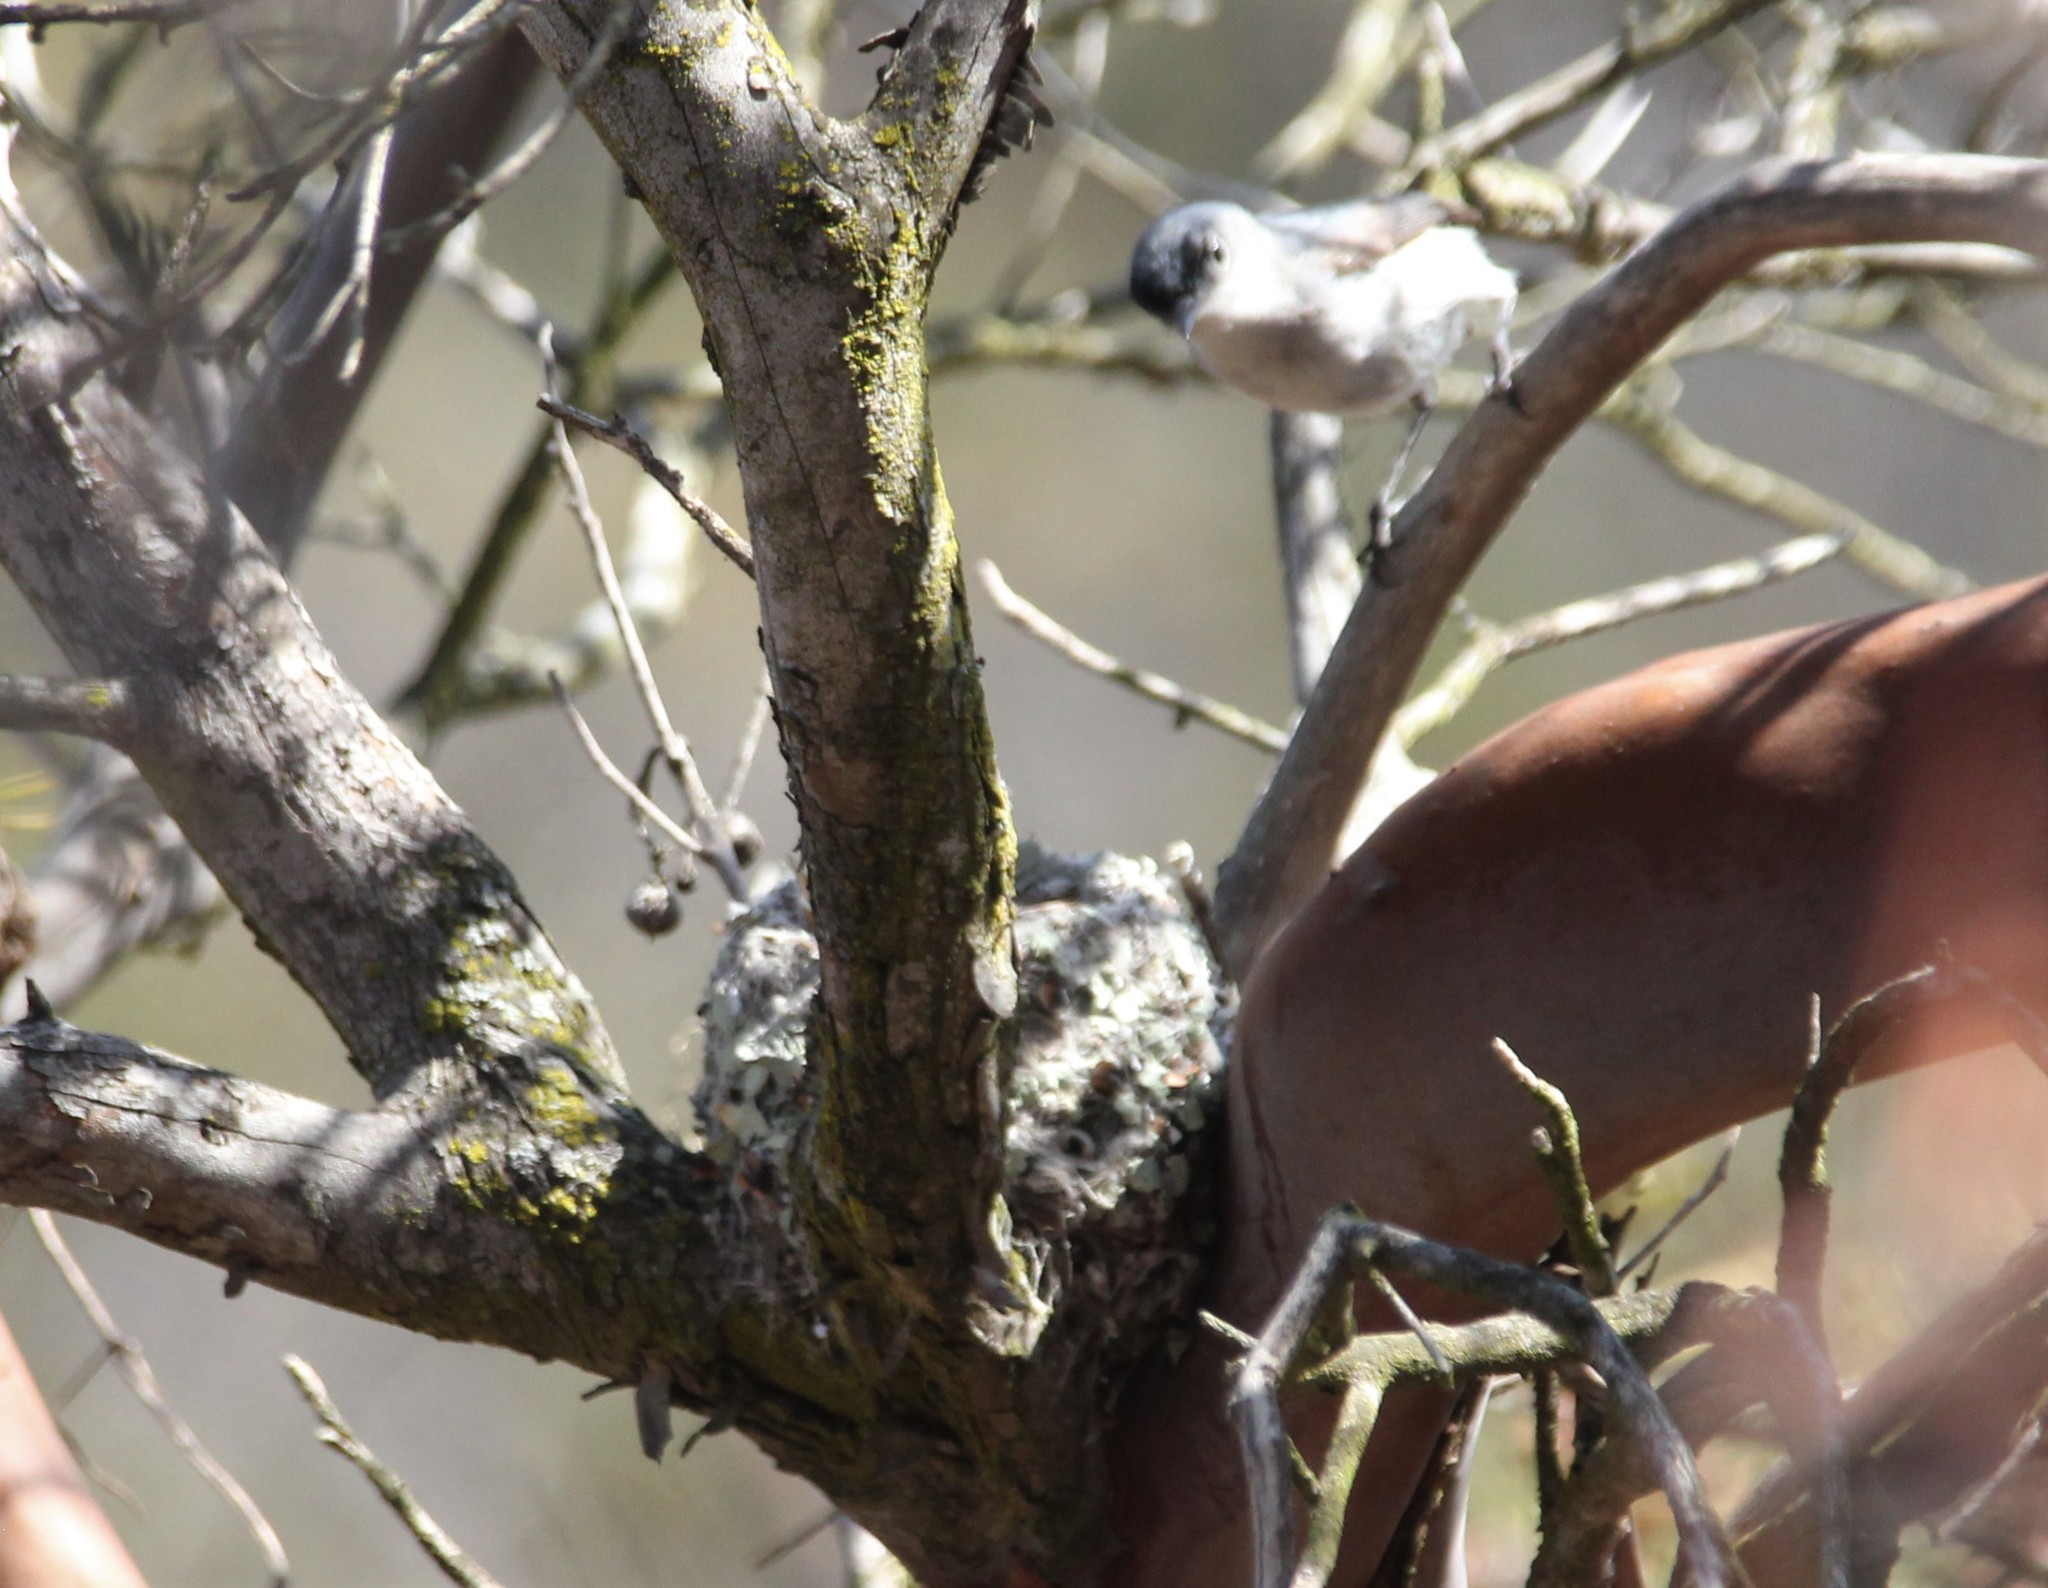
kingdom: Animalia
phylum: Chordata
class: Aves
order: Passeriformes
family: Polioptilidae
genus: Polioptila
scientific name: Polioptila caerulea
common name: Blue-gray gnatcatcher
